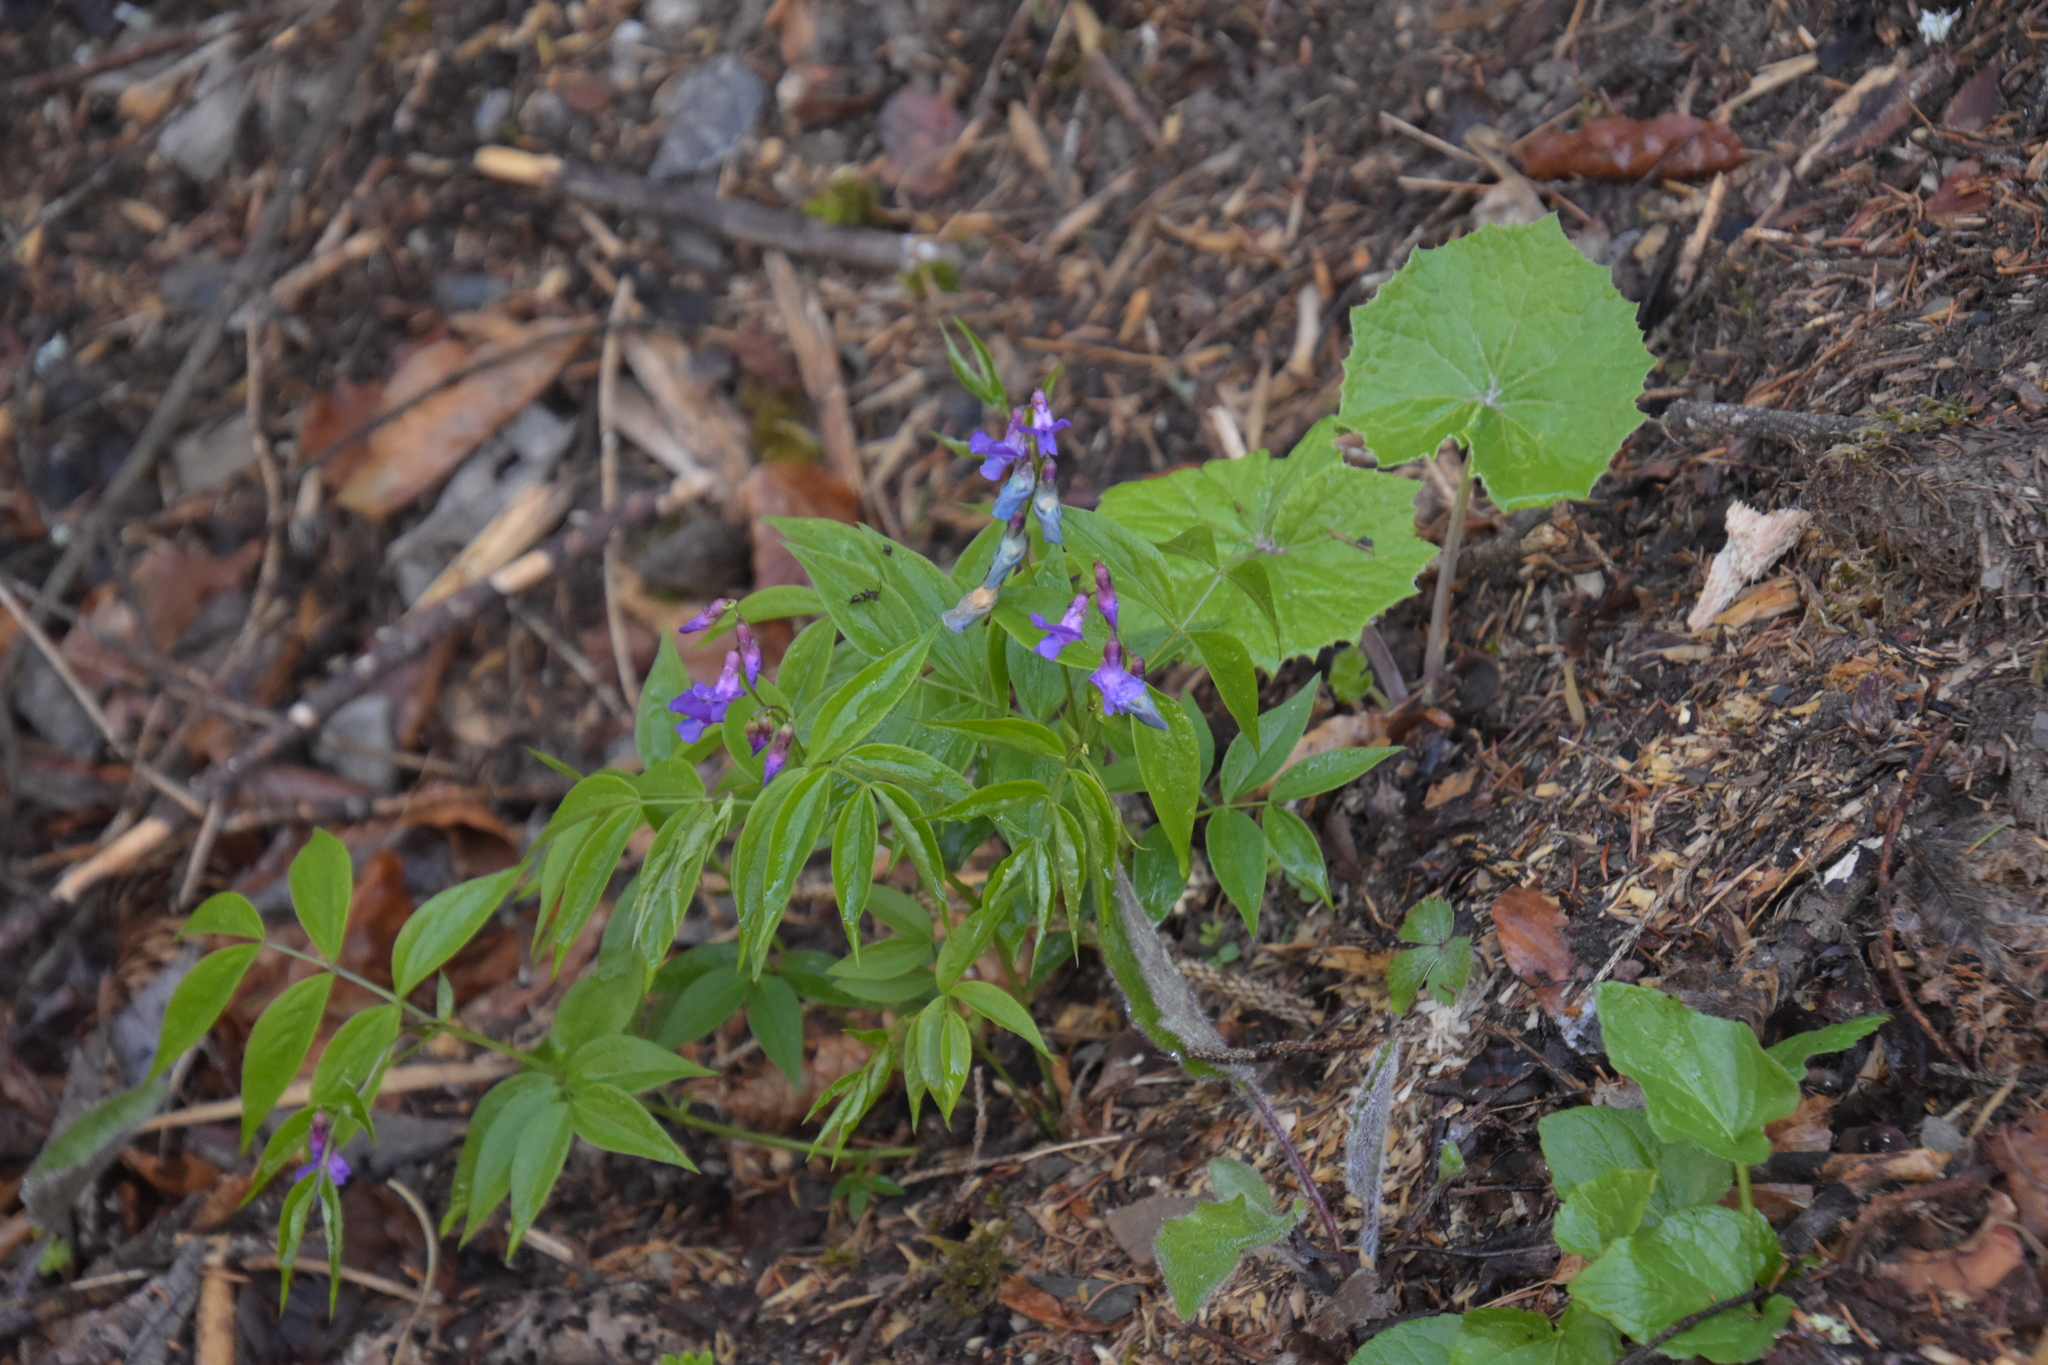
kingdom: Plantae
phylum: Tracheophyta
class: Magnoliopsida
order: Fabales
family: Fabaceae
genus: Lathyrus
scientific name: Lathyrus vernus
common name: Spring pea
